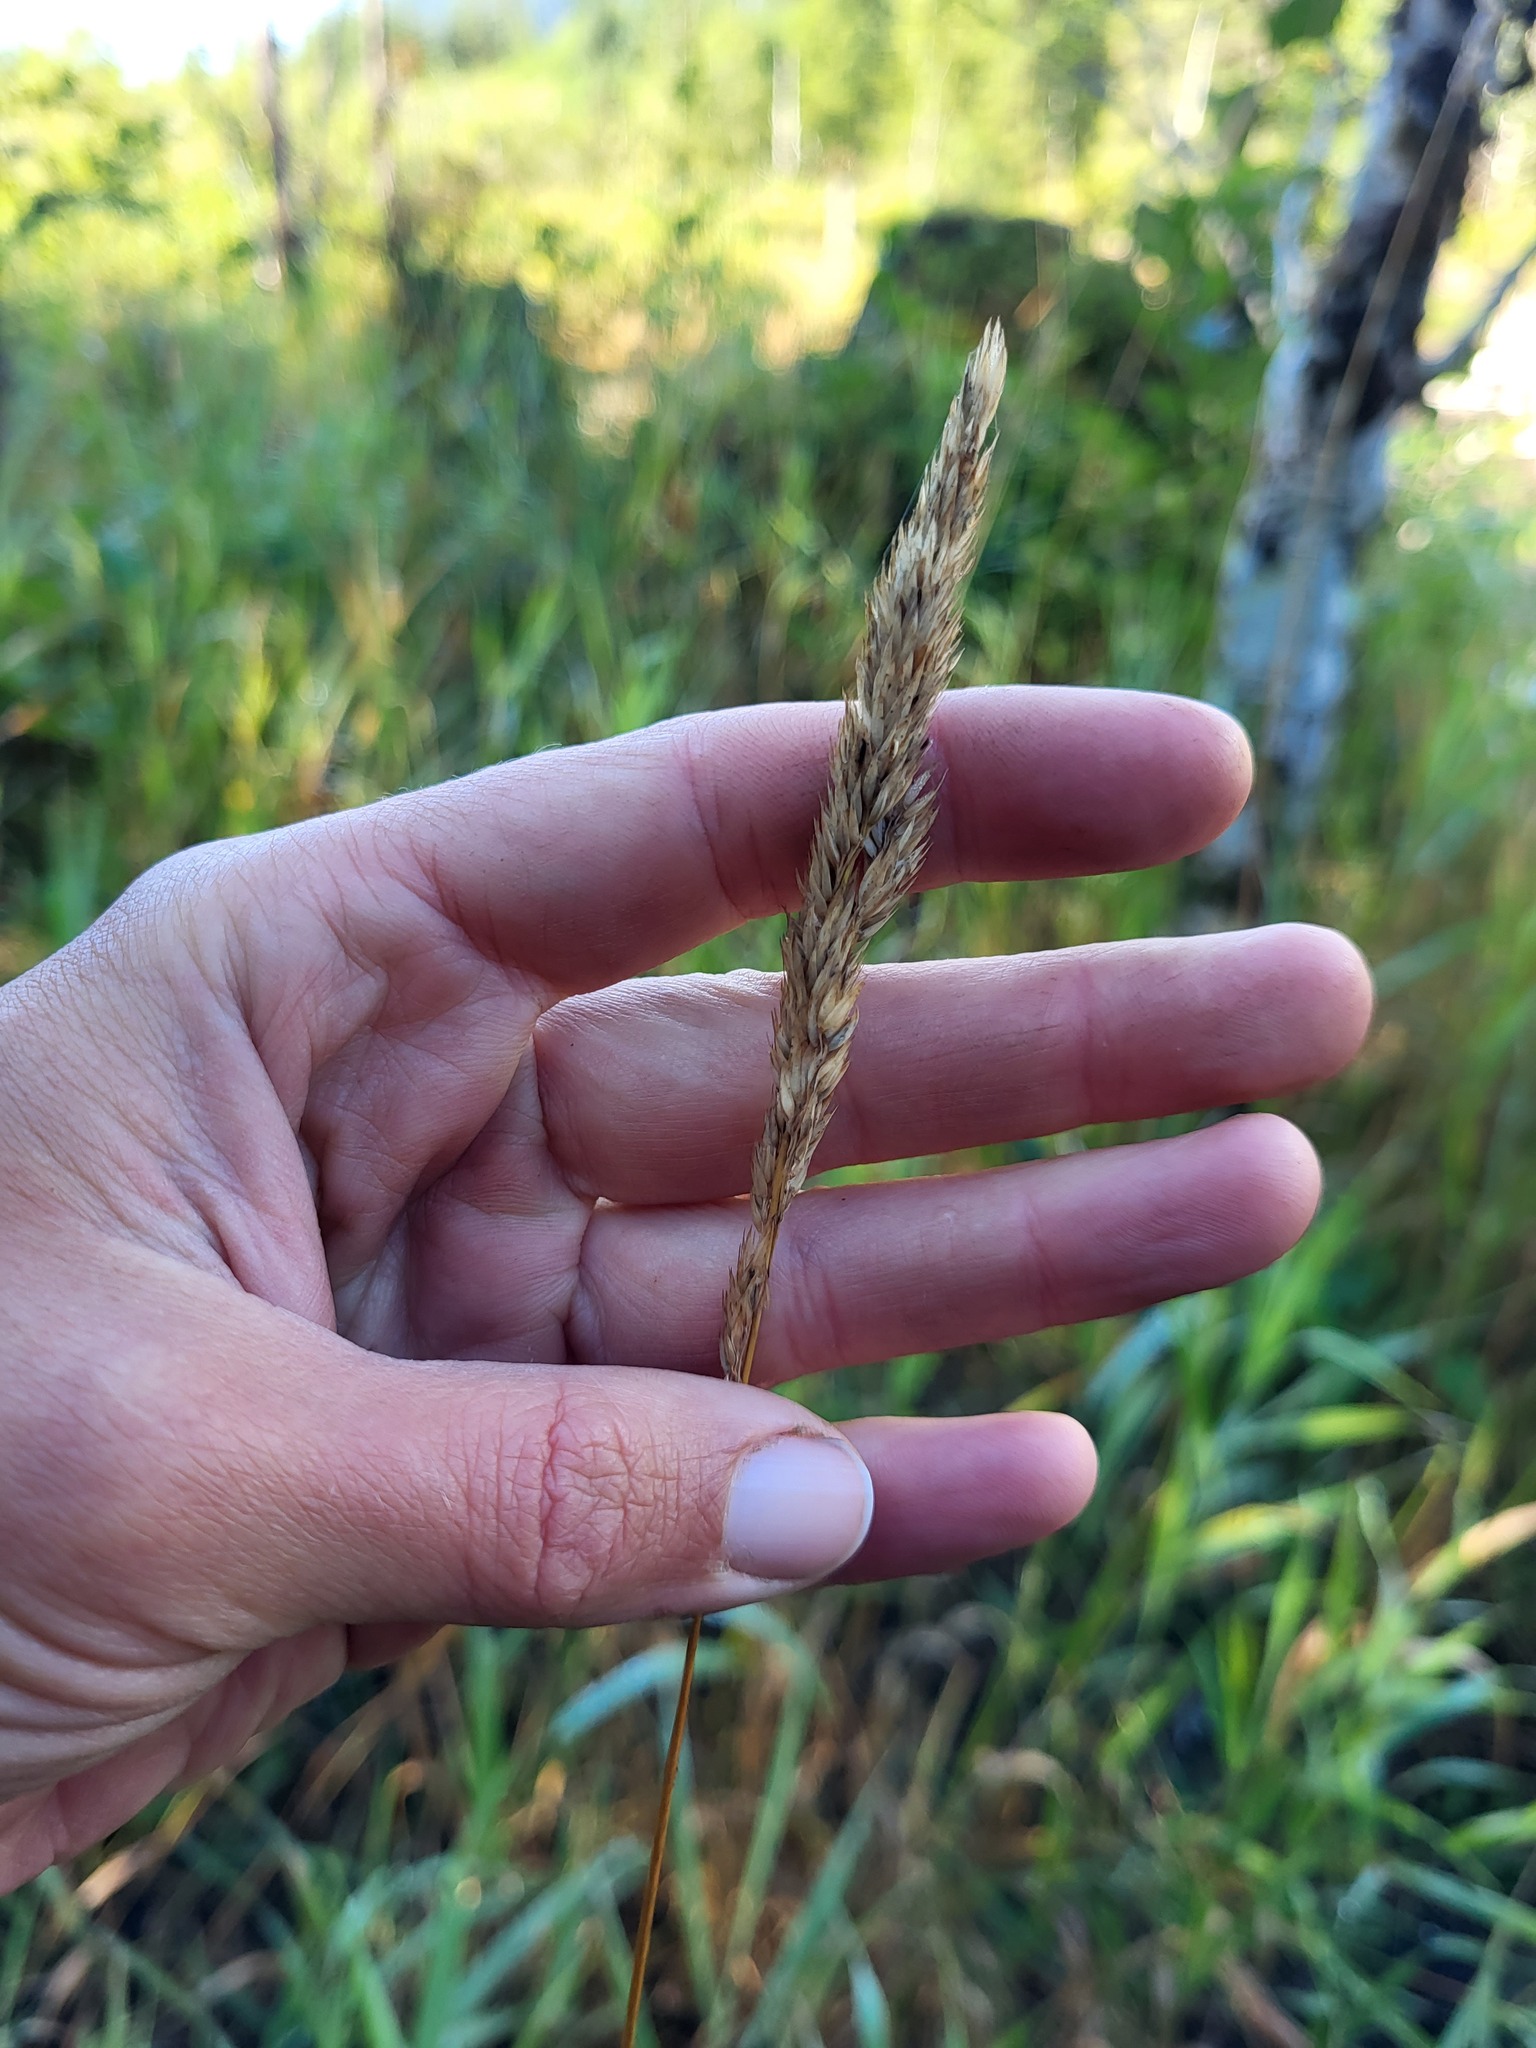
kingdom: Plantae
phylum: Tracheophyta
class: Liliopsida
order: Poales
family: Poaceae
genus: Phalaris
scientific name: Phalaris arundinacea
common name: Reed canary-grass
